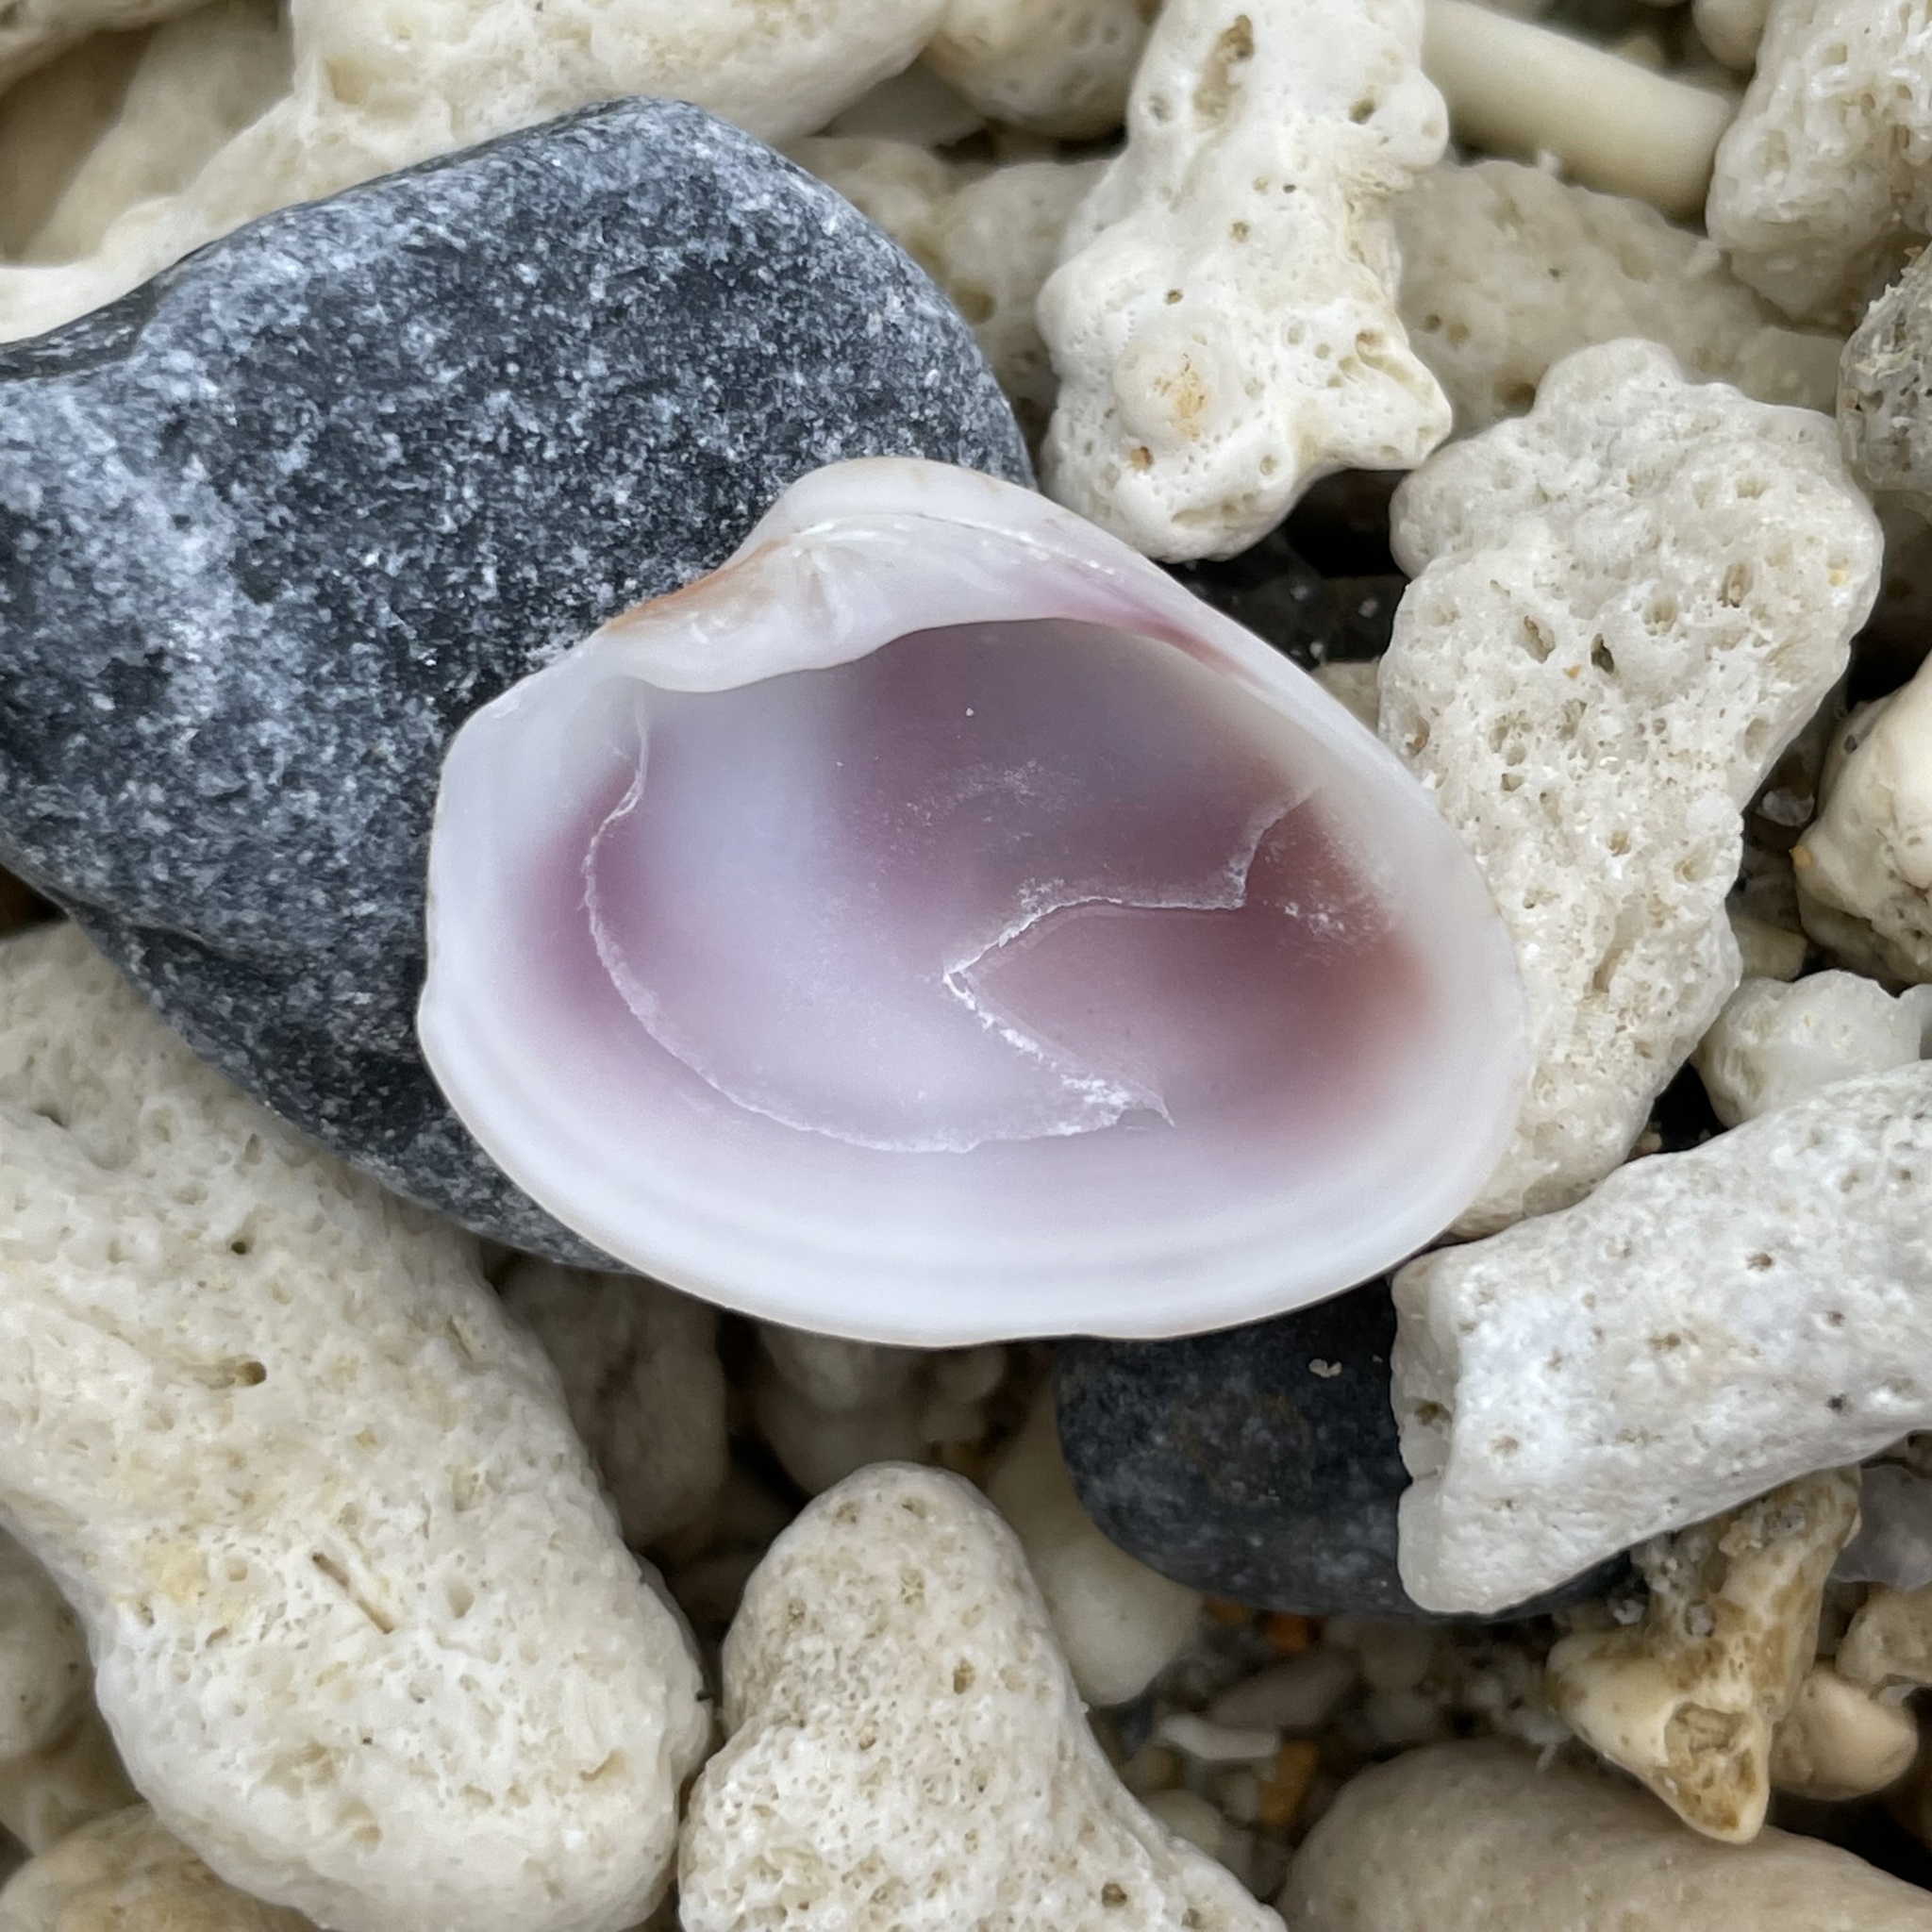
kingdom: Animalia
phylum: Mollusca
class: Bivalvia
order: Venerida
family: Veneridae
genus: Callista
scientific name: Callista phasianella
